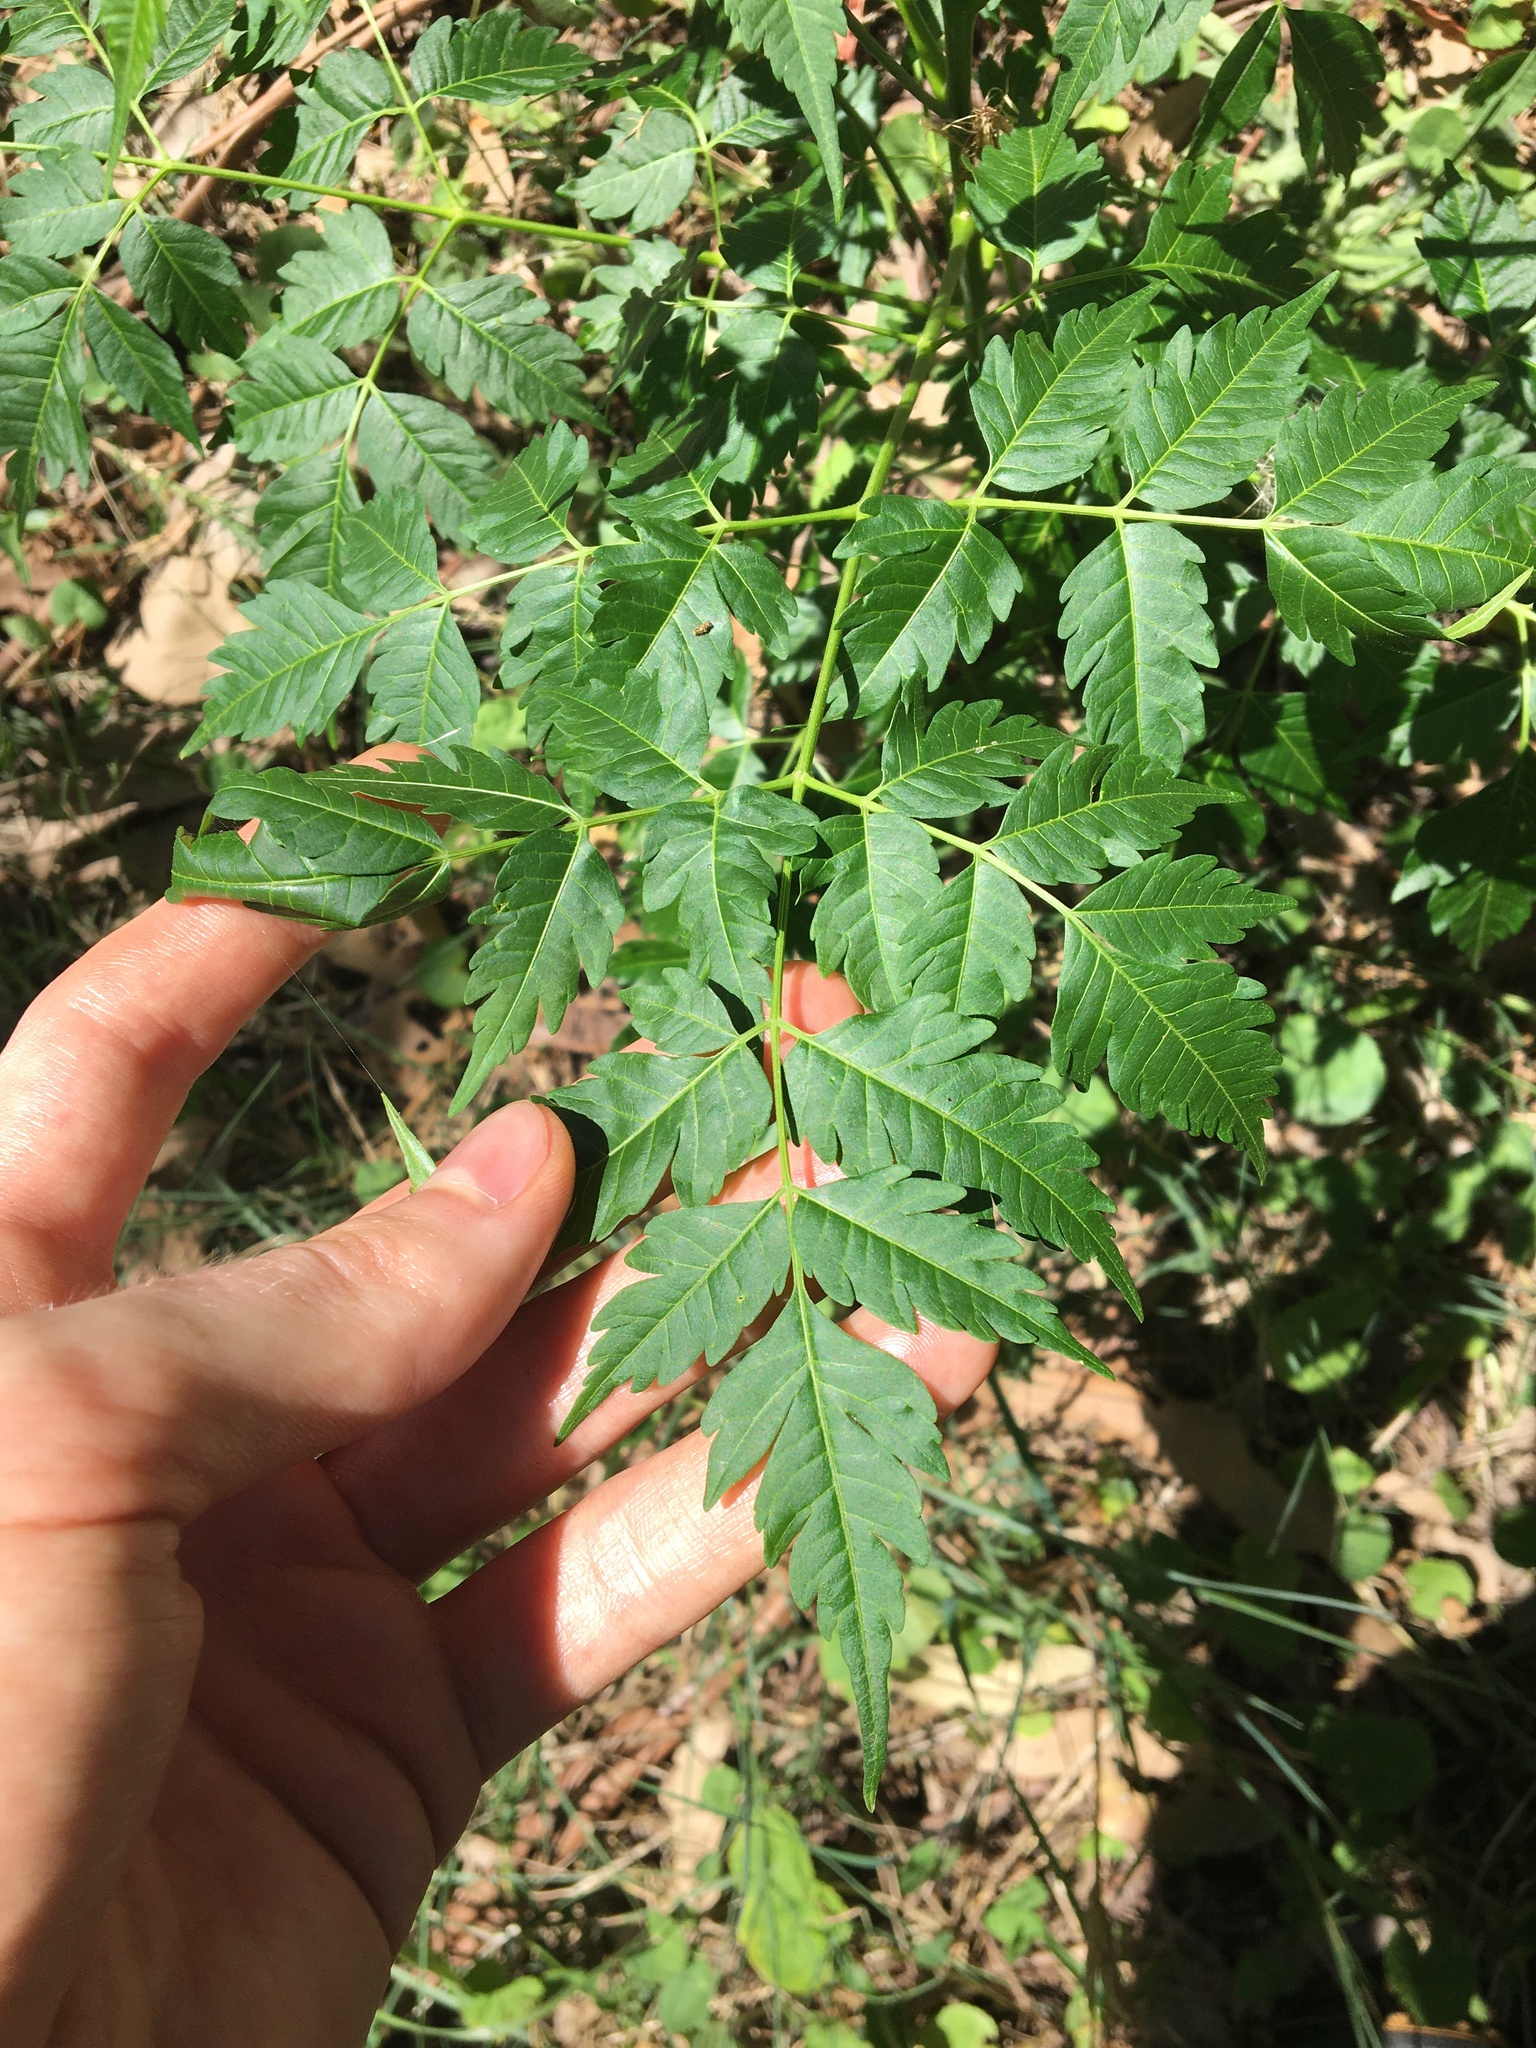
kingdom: Plantae
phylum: Tracheophyta
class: Magnoliopsida
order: Sapindales
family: Meliaceae
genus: Melia
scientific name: Melia azedarach
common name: Chinaberrytree
